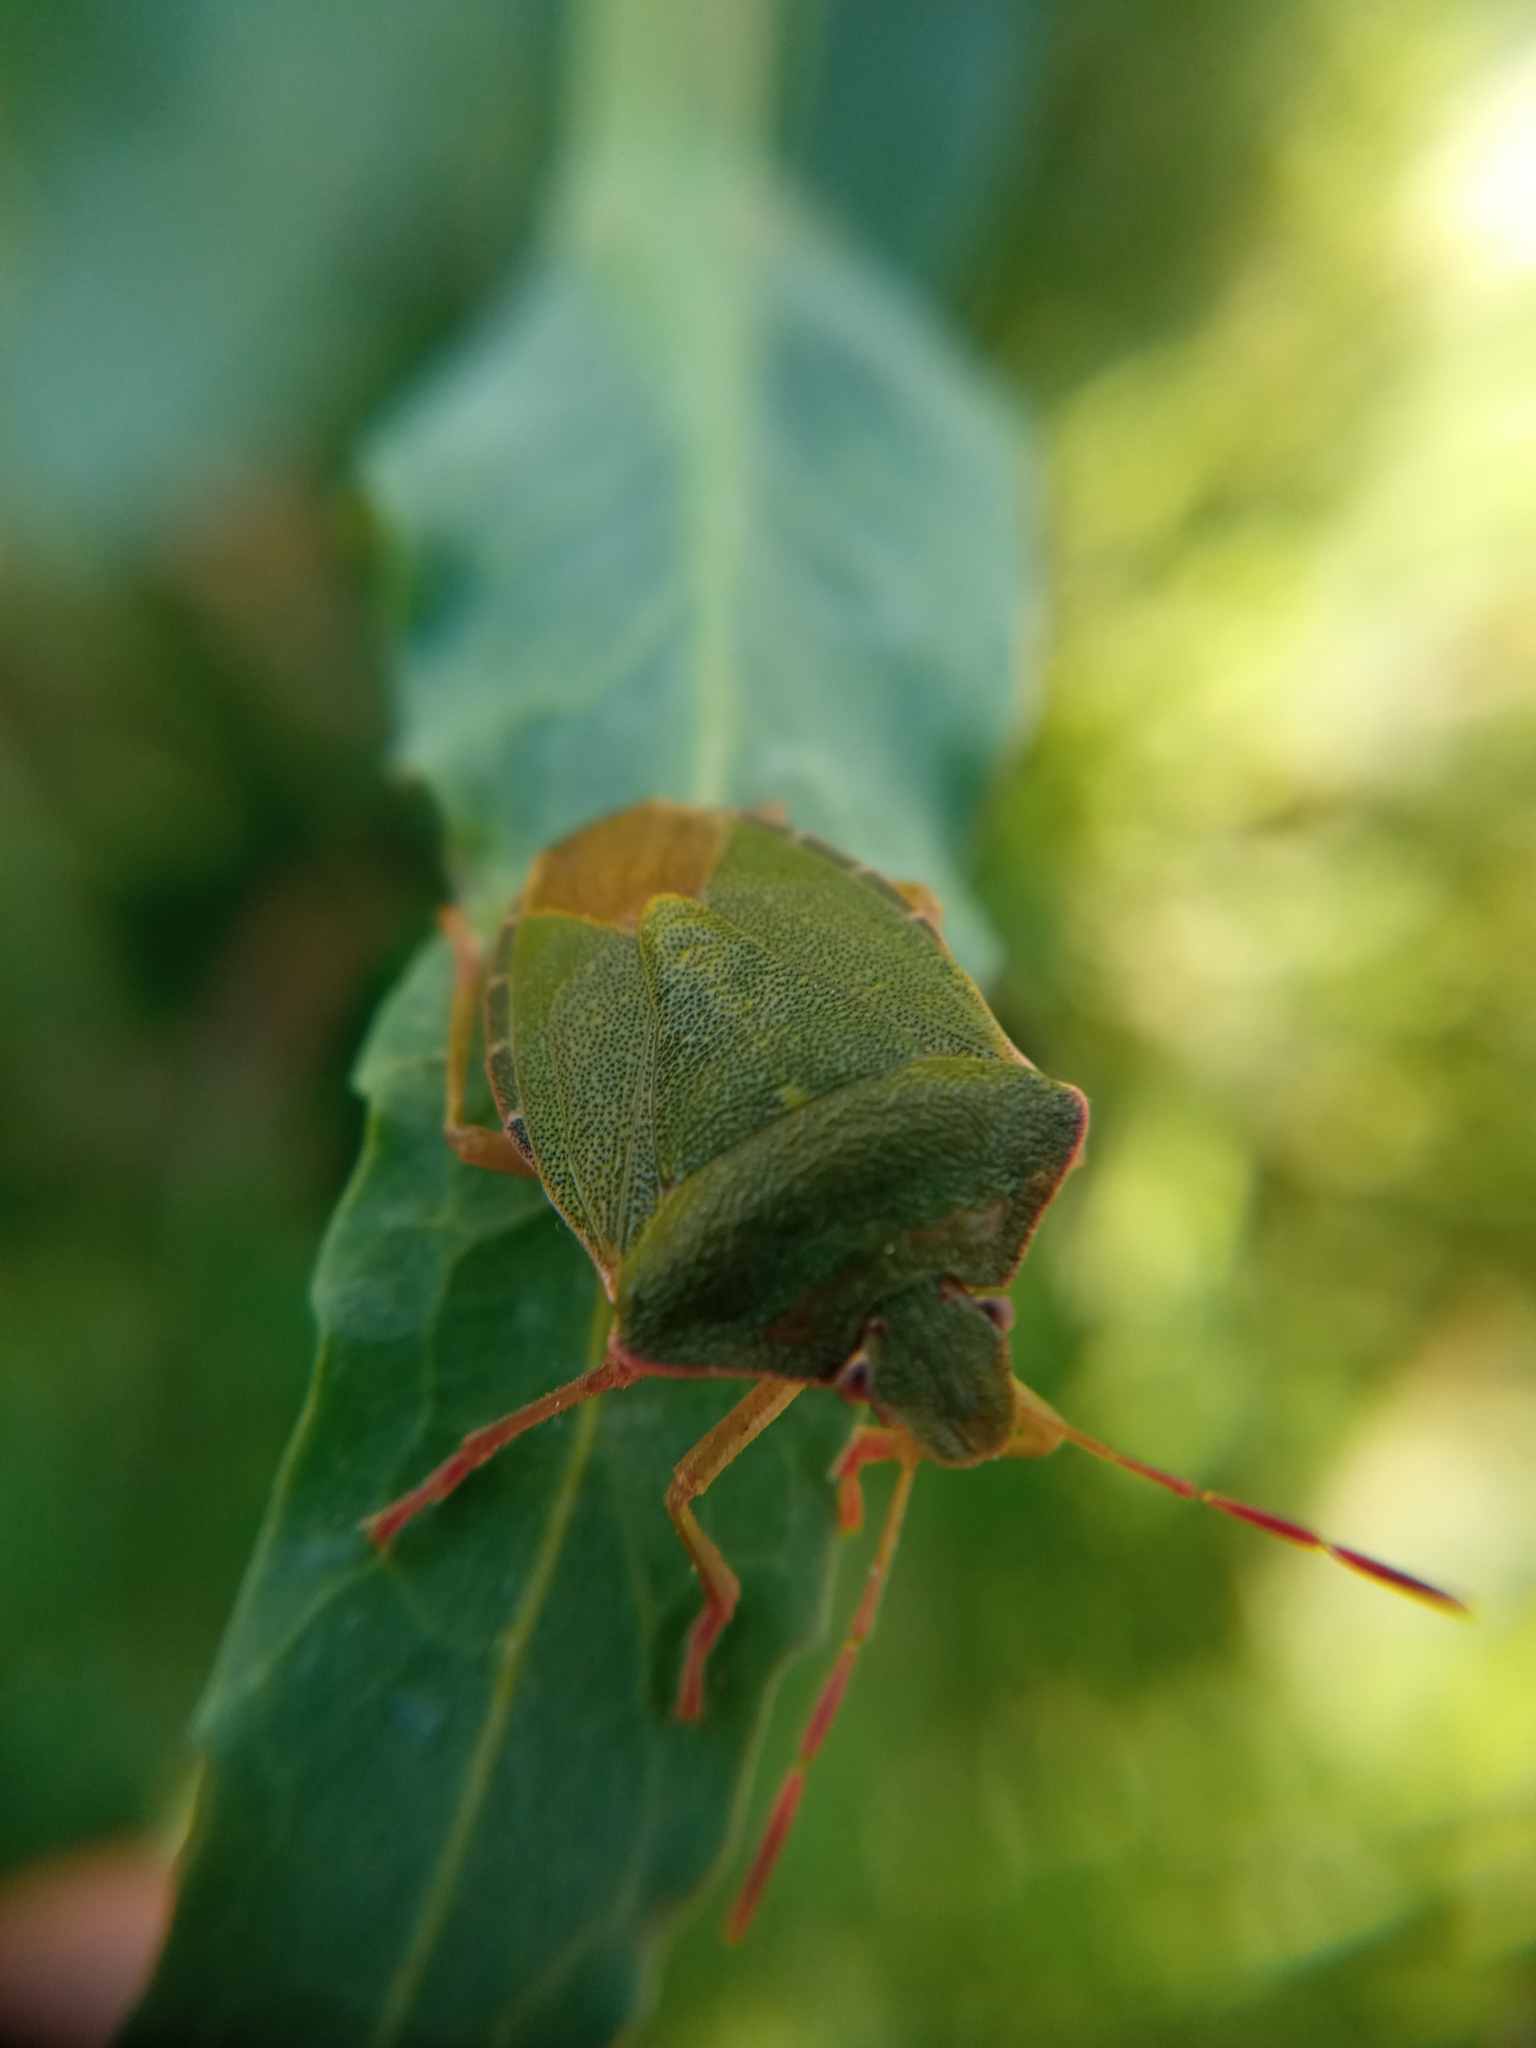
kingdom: Animalia
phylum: Arthropoda
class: Insecta
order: Hemiptera
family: Pentatomidae
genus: Palomena
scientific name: Palomena prasina
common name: Green shieldbug
